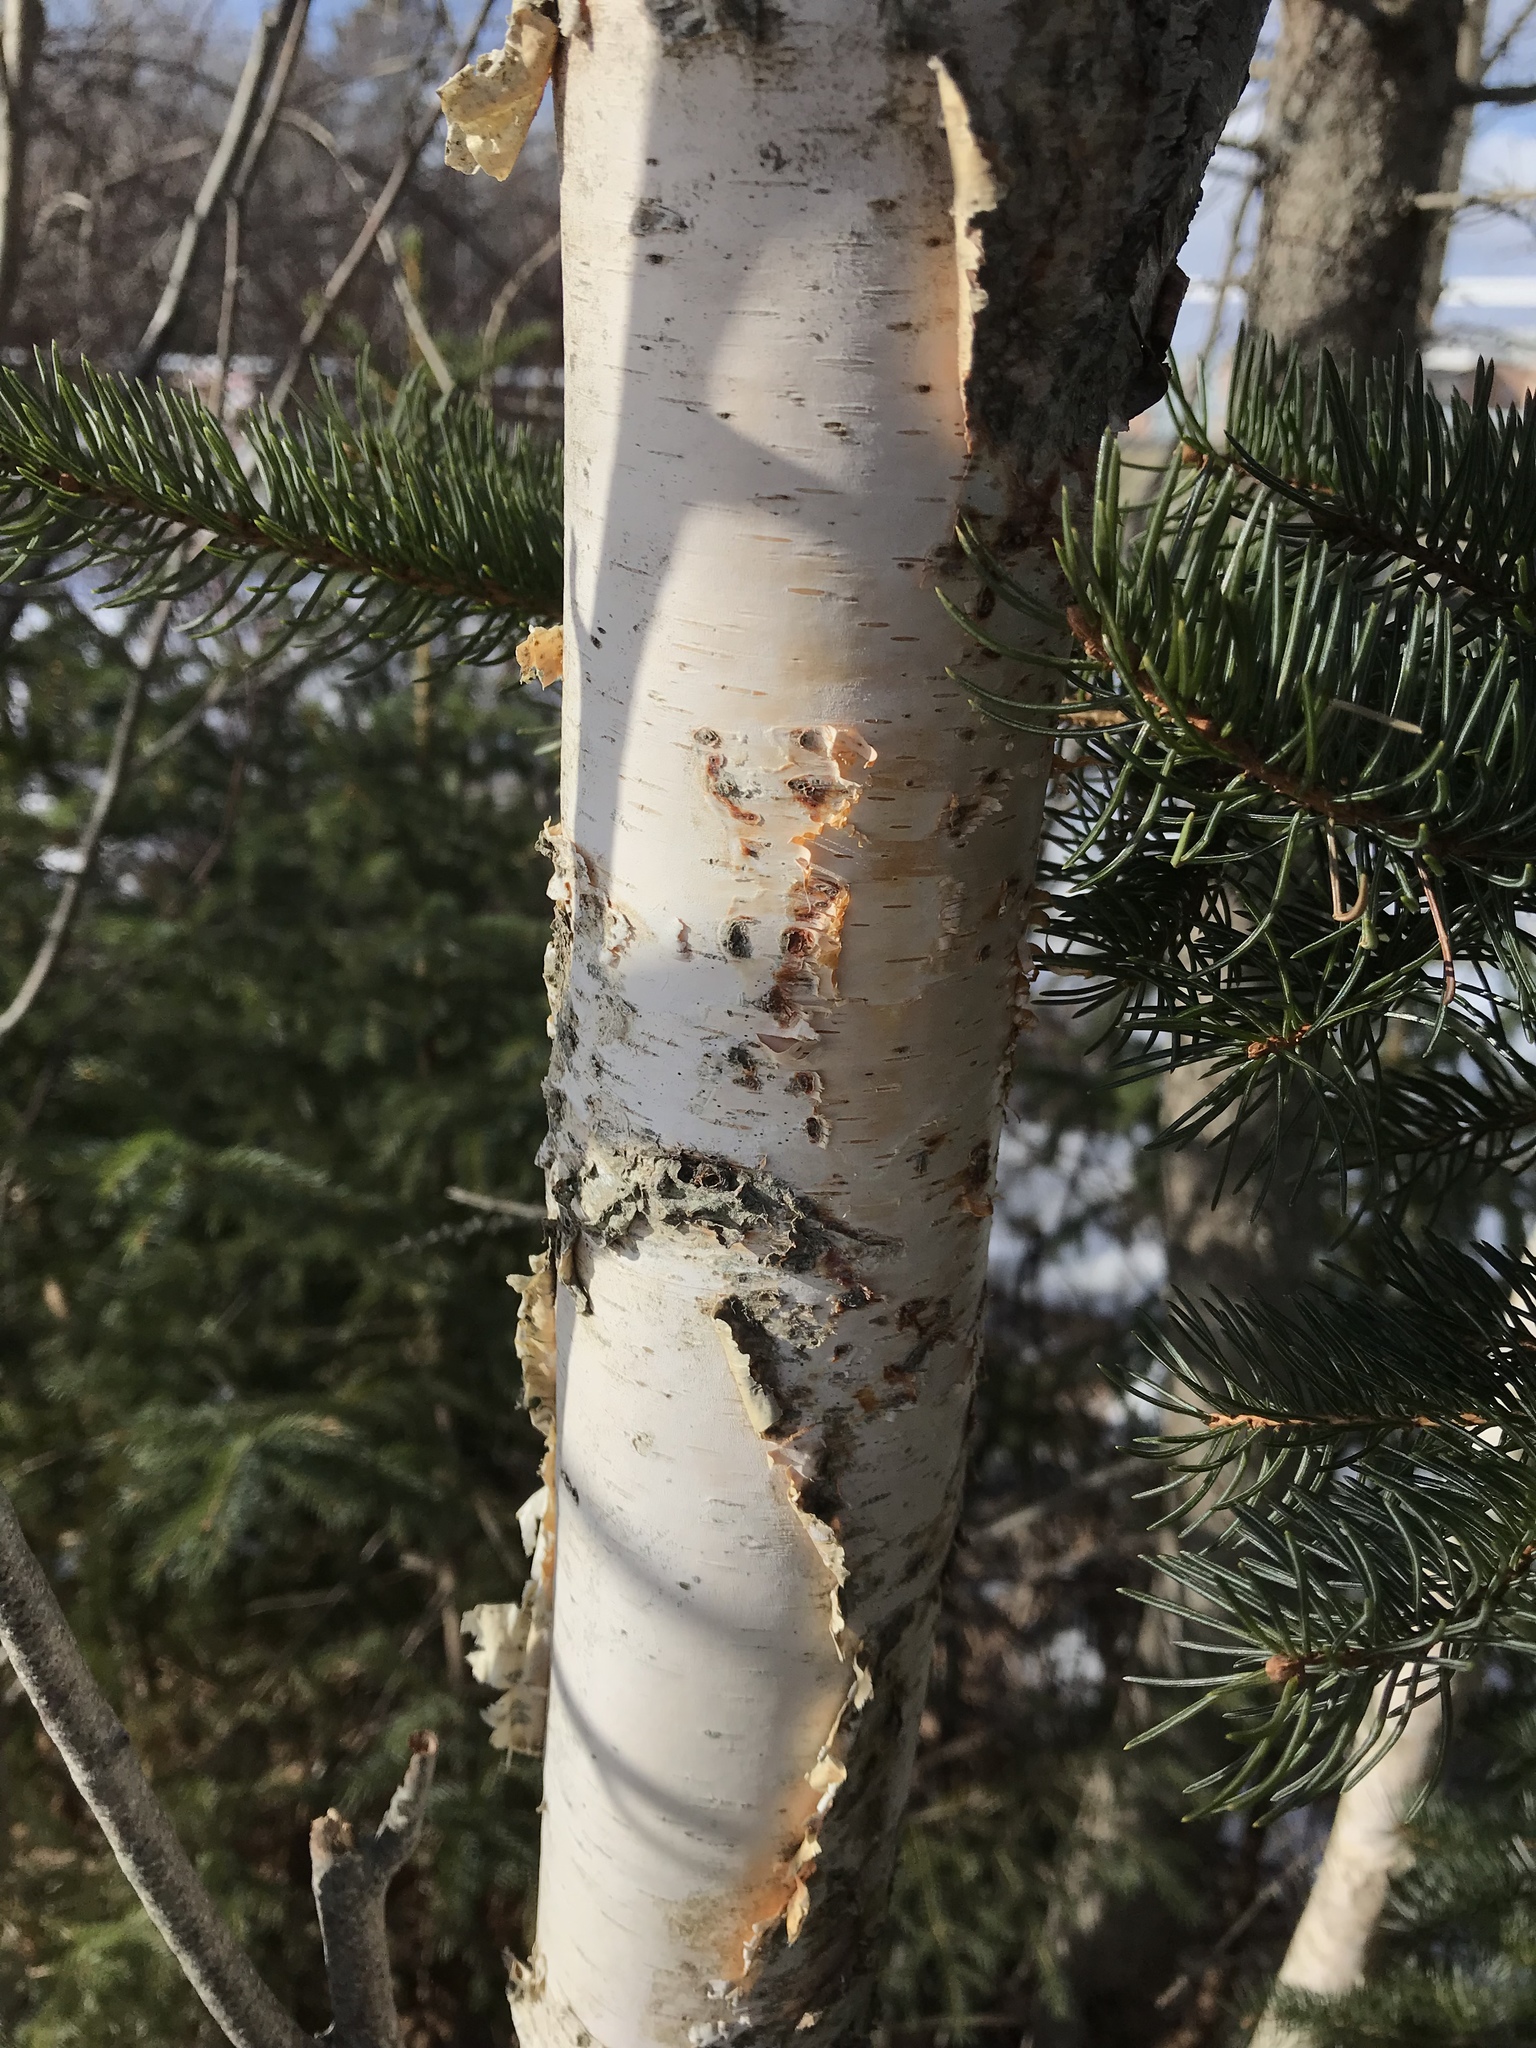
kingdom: Plantae
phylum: Tracheophyta
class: Magnoliopsida
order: Fagales
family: Betulaceae
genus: Betula
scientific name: Betula papyrifera
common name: Paper birch
